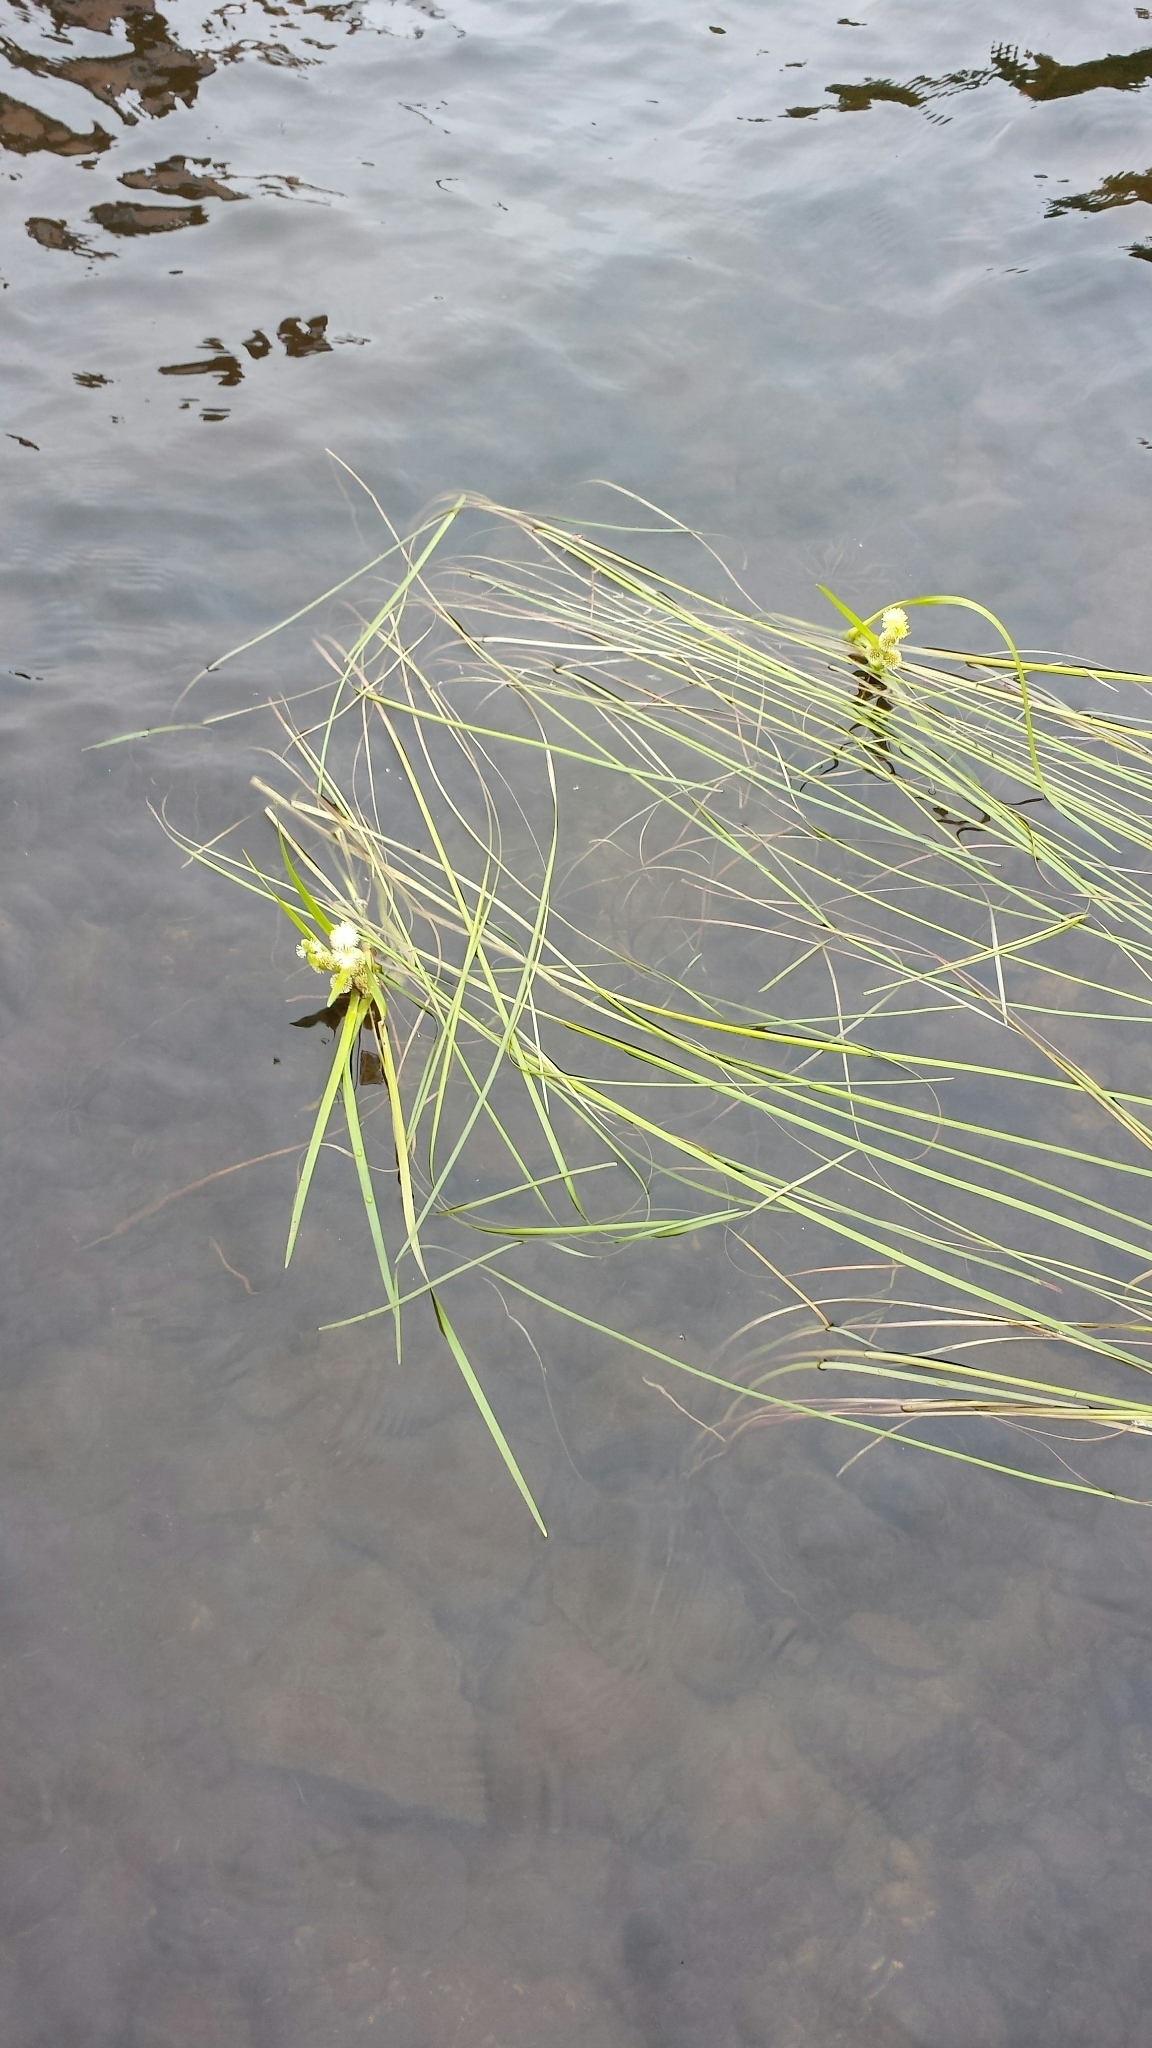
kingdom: Plantae
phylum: Tracheophyta
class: Liliopsida
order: Poales
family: Typhaceae
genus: Sparganium
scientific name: Sparganium angustifolium
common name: Floating bur-reed
